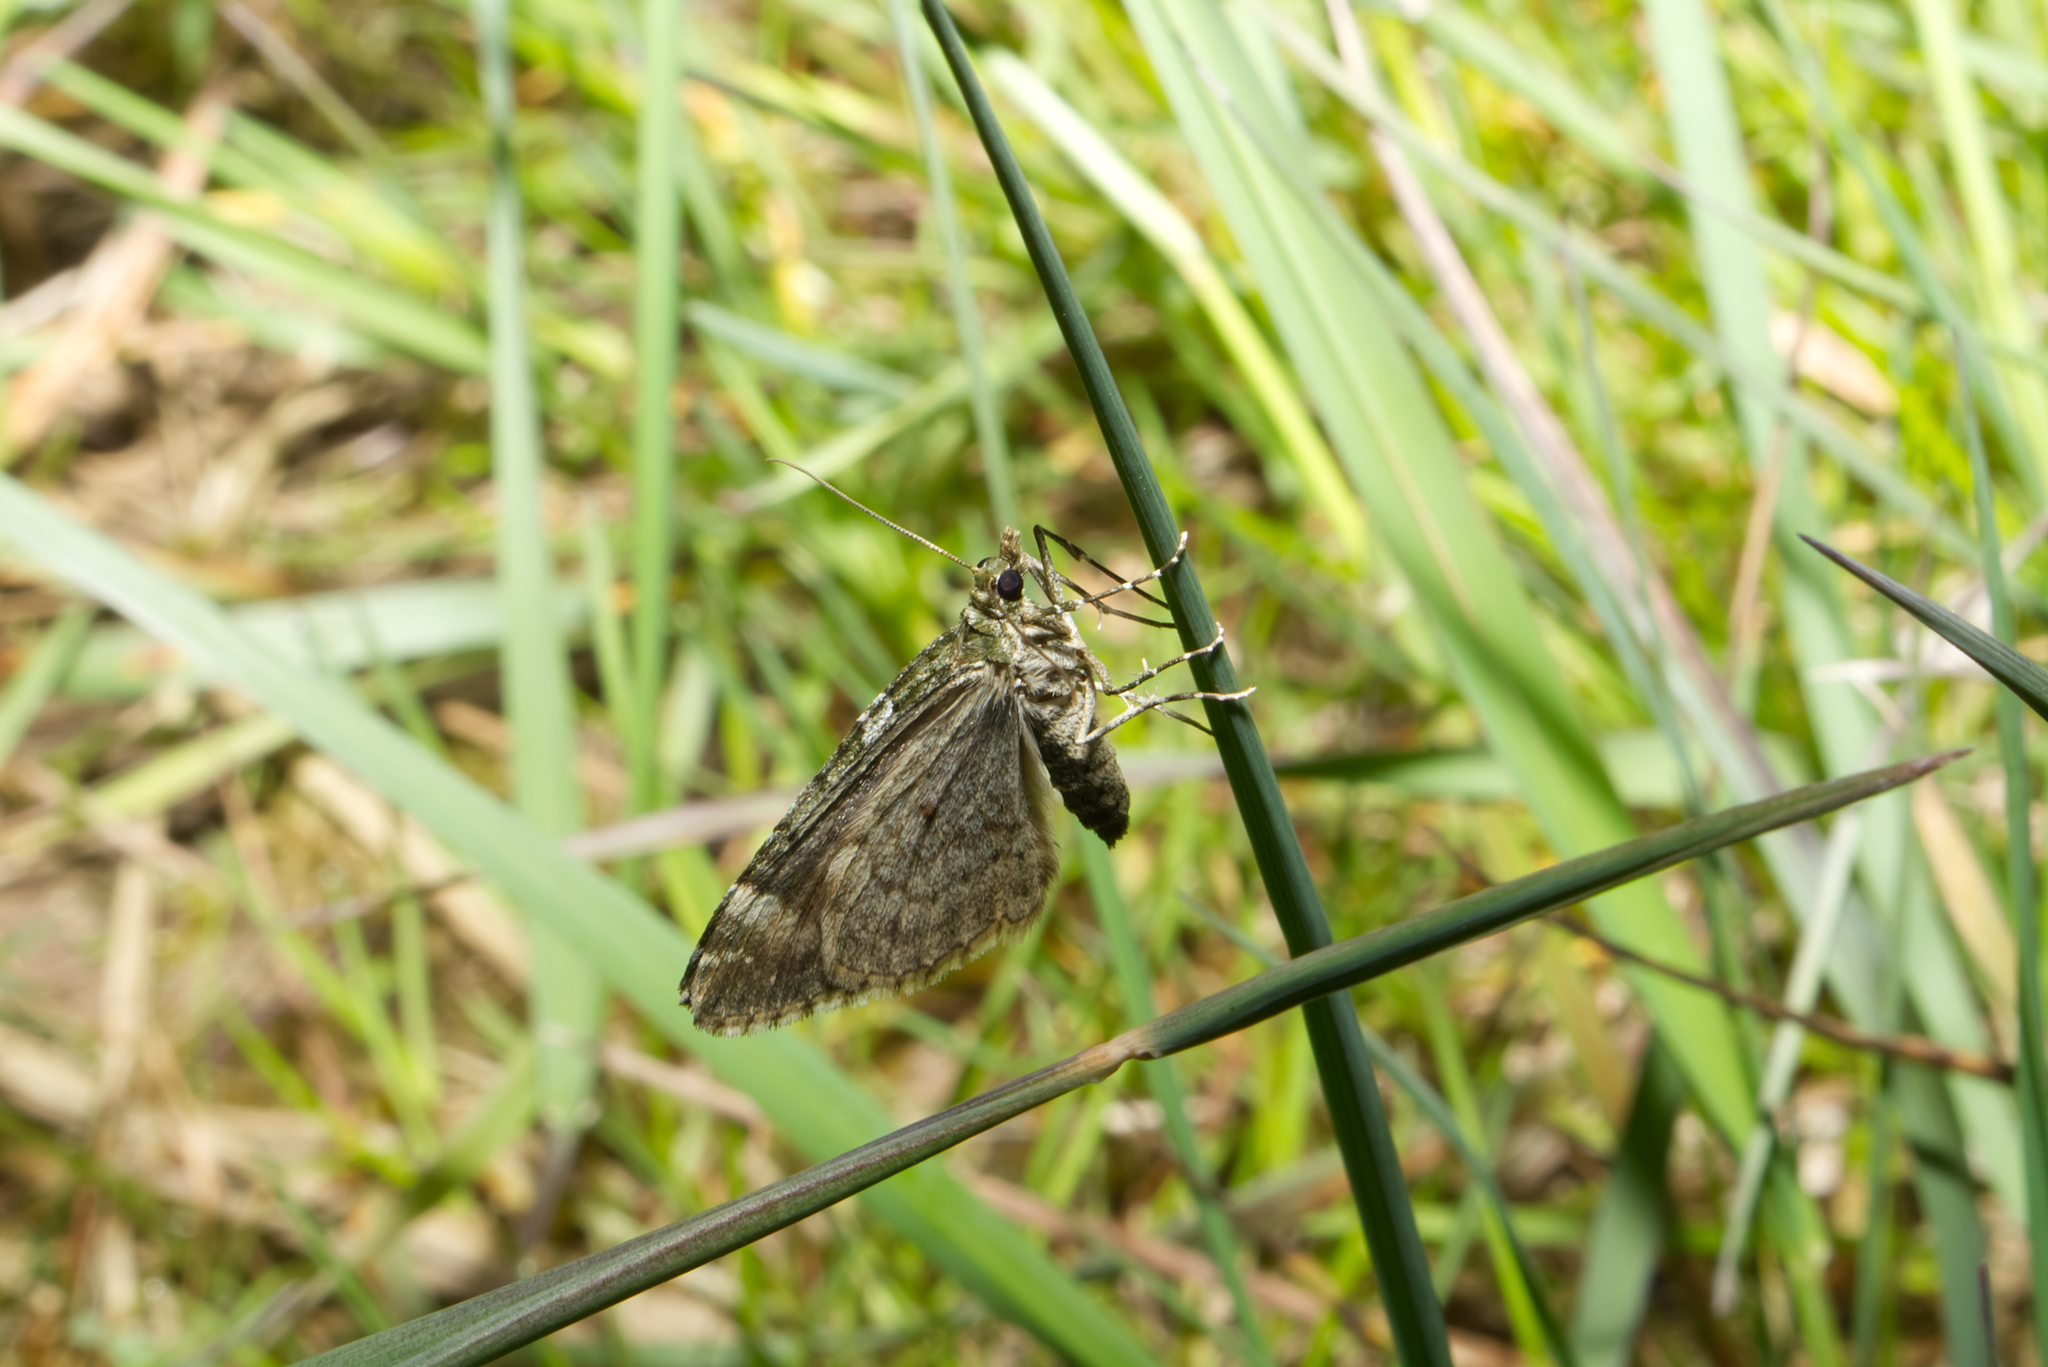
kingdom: Animalia
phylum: Arthropoda
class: Insecta
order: Lepidoptera
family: Geometridae
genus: Chloroclysta
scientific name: Chloroclysta siterata
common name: Red-green carpet
